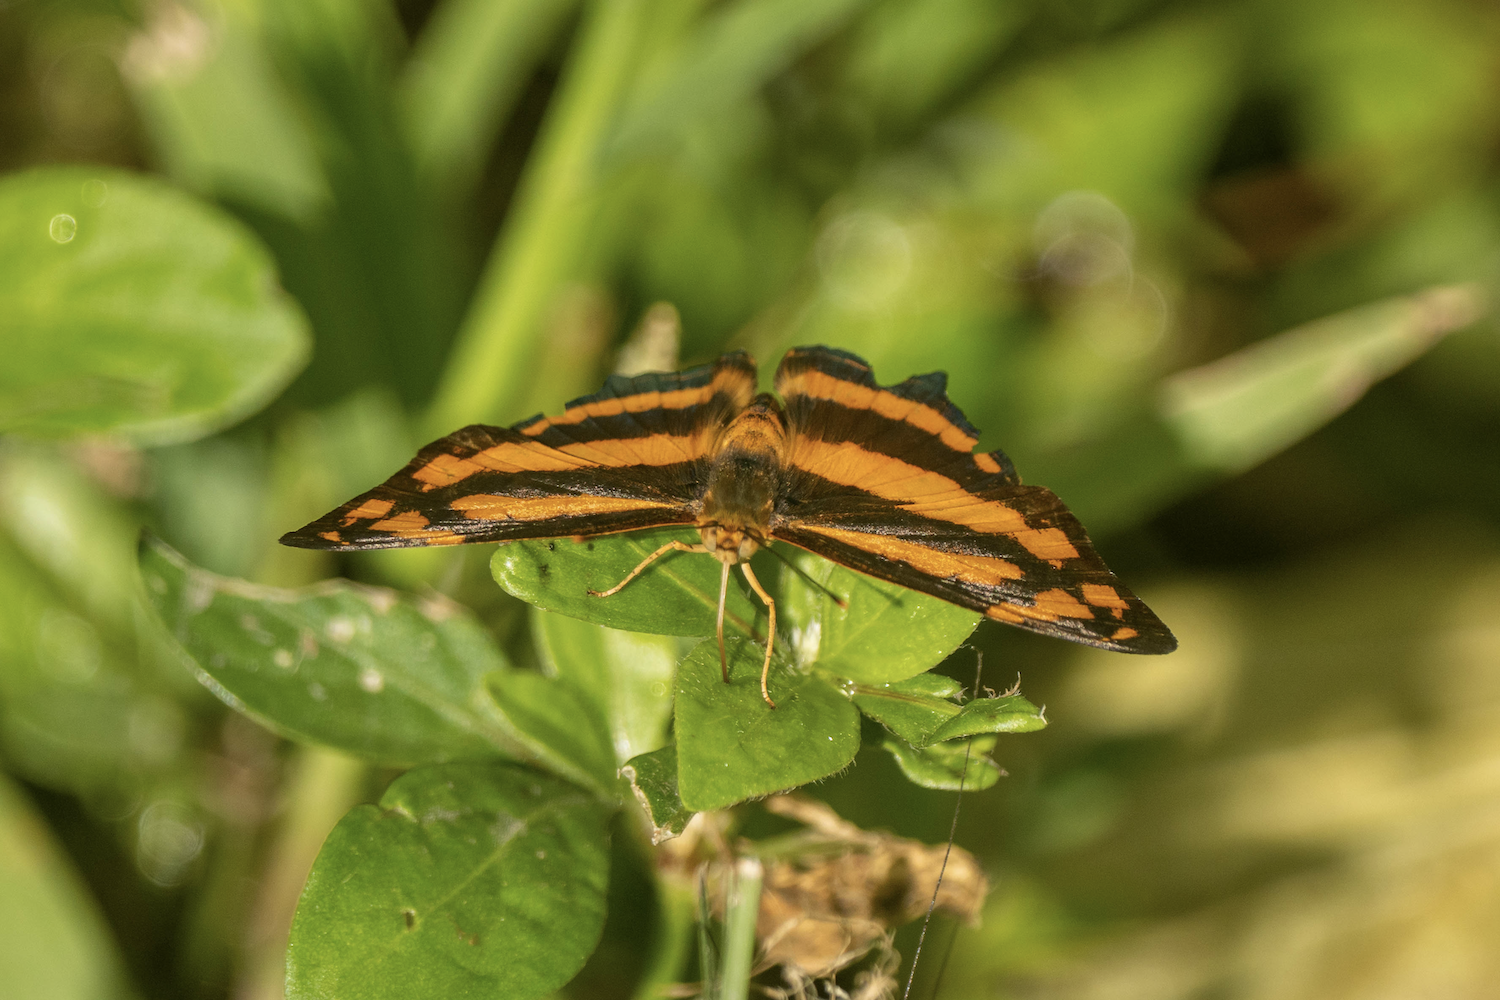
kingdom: Animalia
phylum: Arthropoda
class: Insecta
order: Lepidoptera
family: Nymphalidae
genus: Symbrenthia
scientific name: Symbrenthia hypselis
